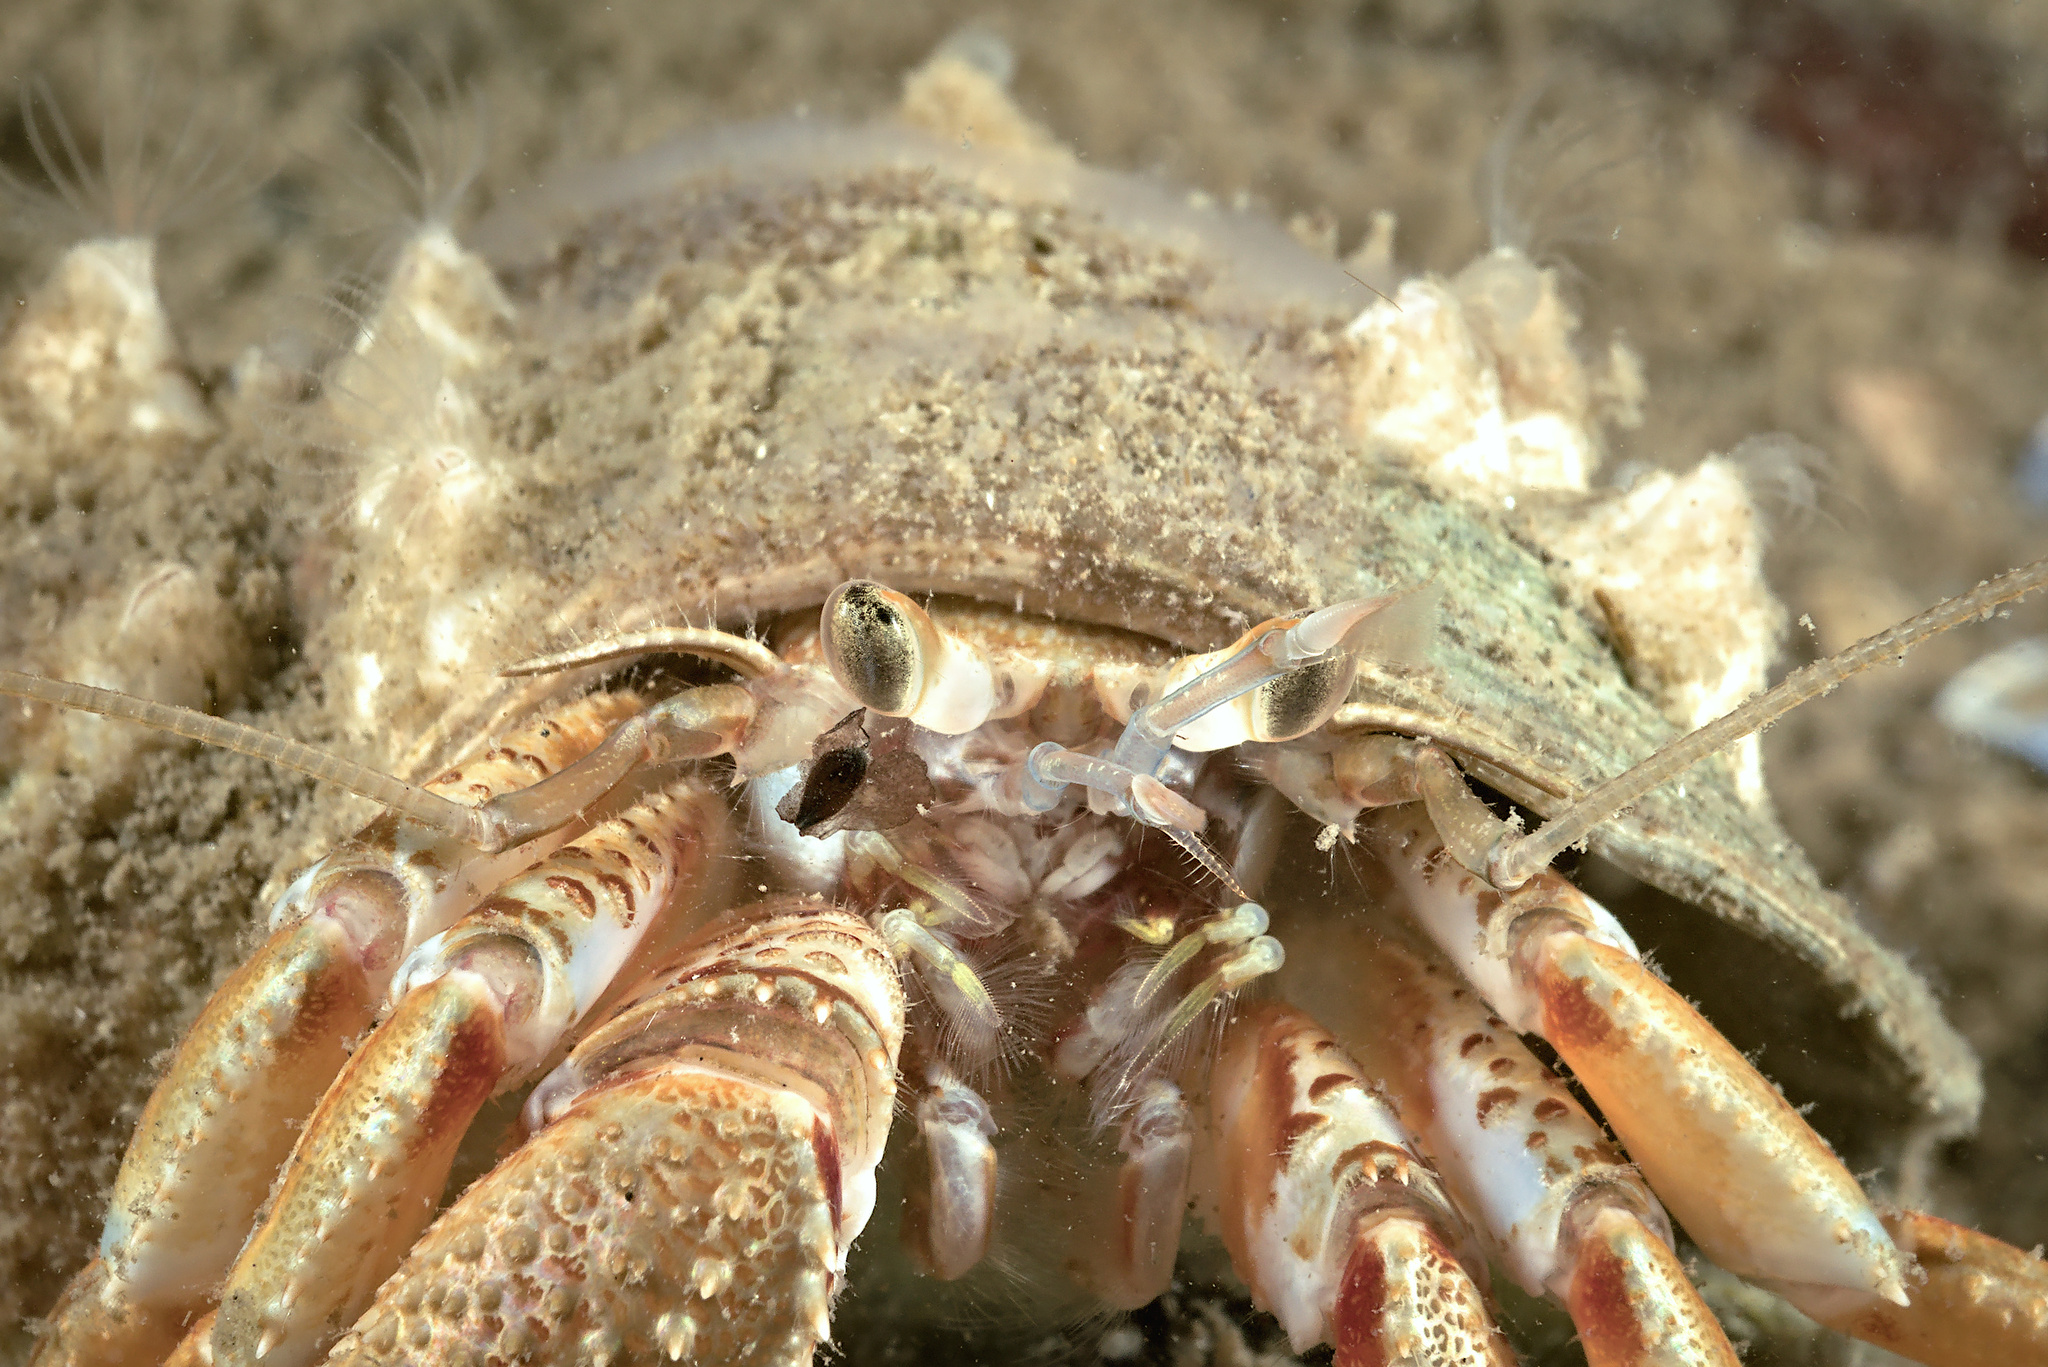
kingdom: Animalia
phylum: Arthropoda
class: Malacostraca
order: Decapoda
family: Paguridae
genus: Pagurus
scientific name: Pagurus bernhardus
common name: Hermit crab
